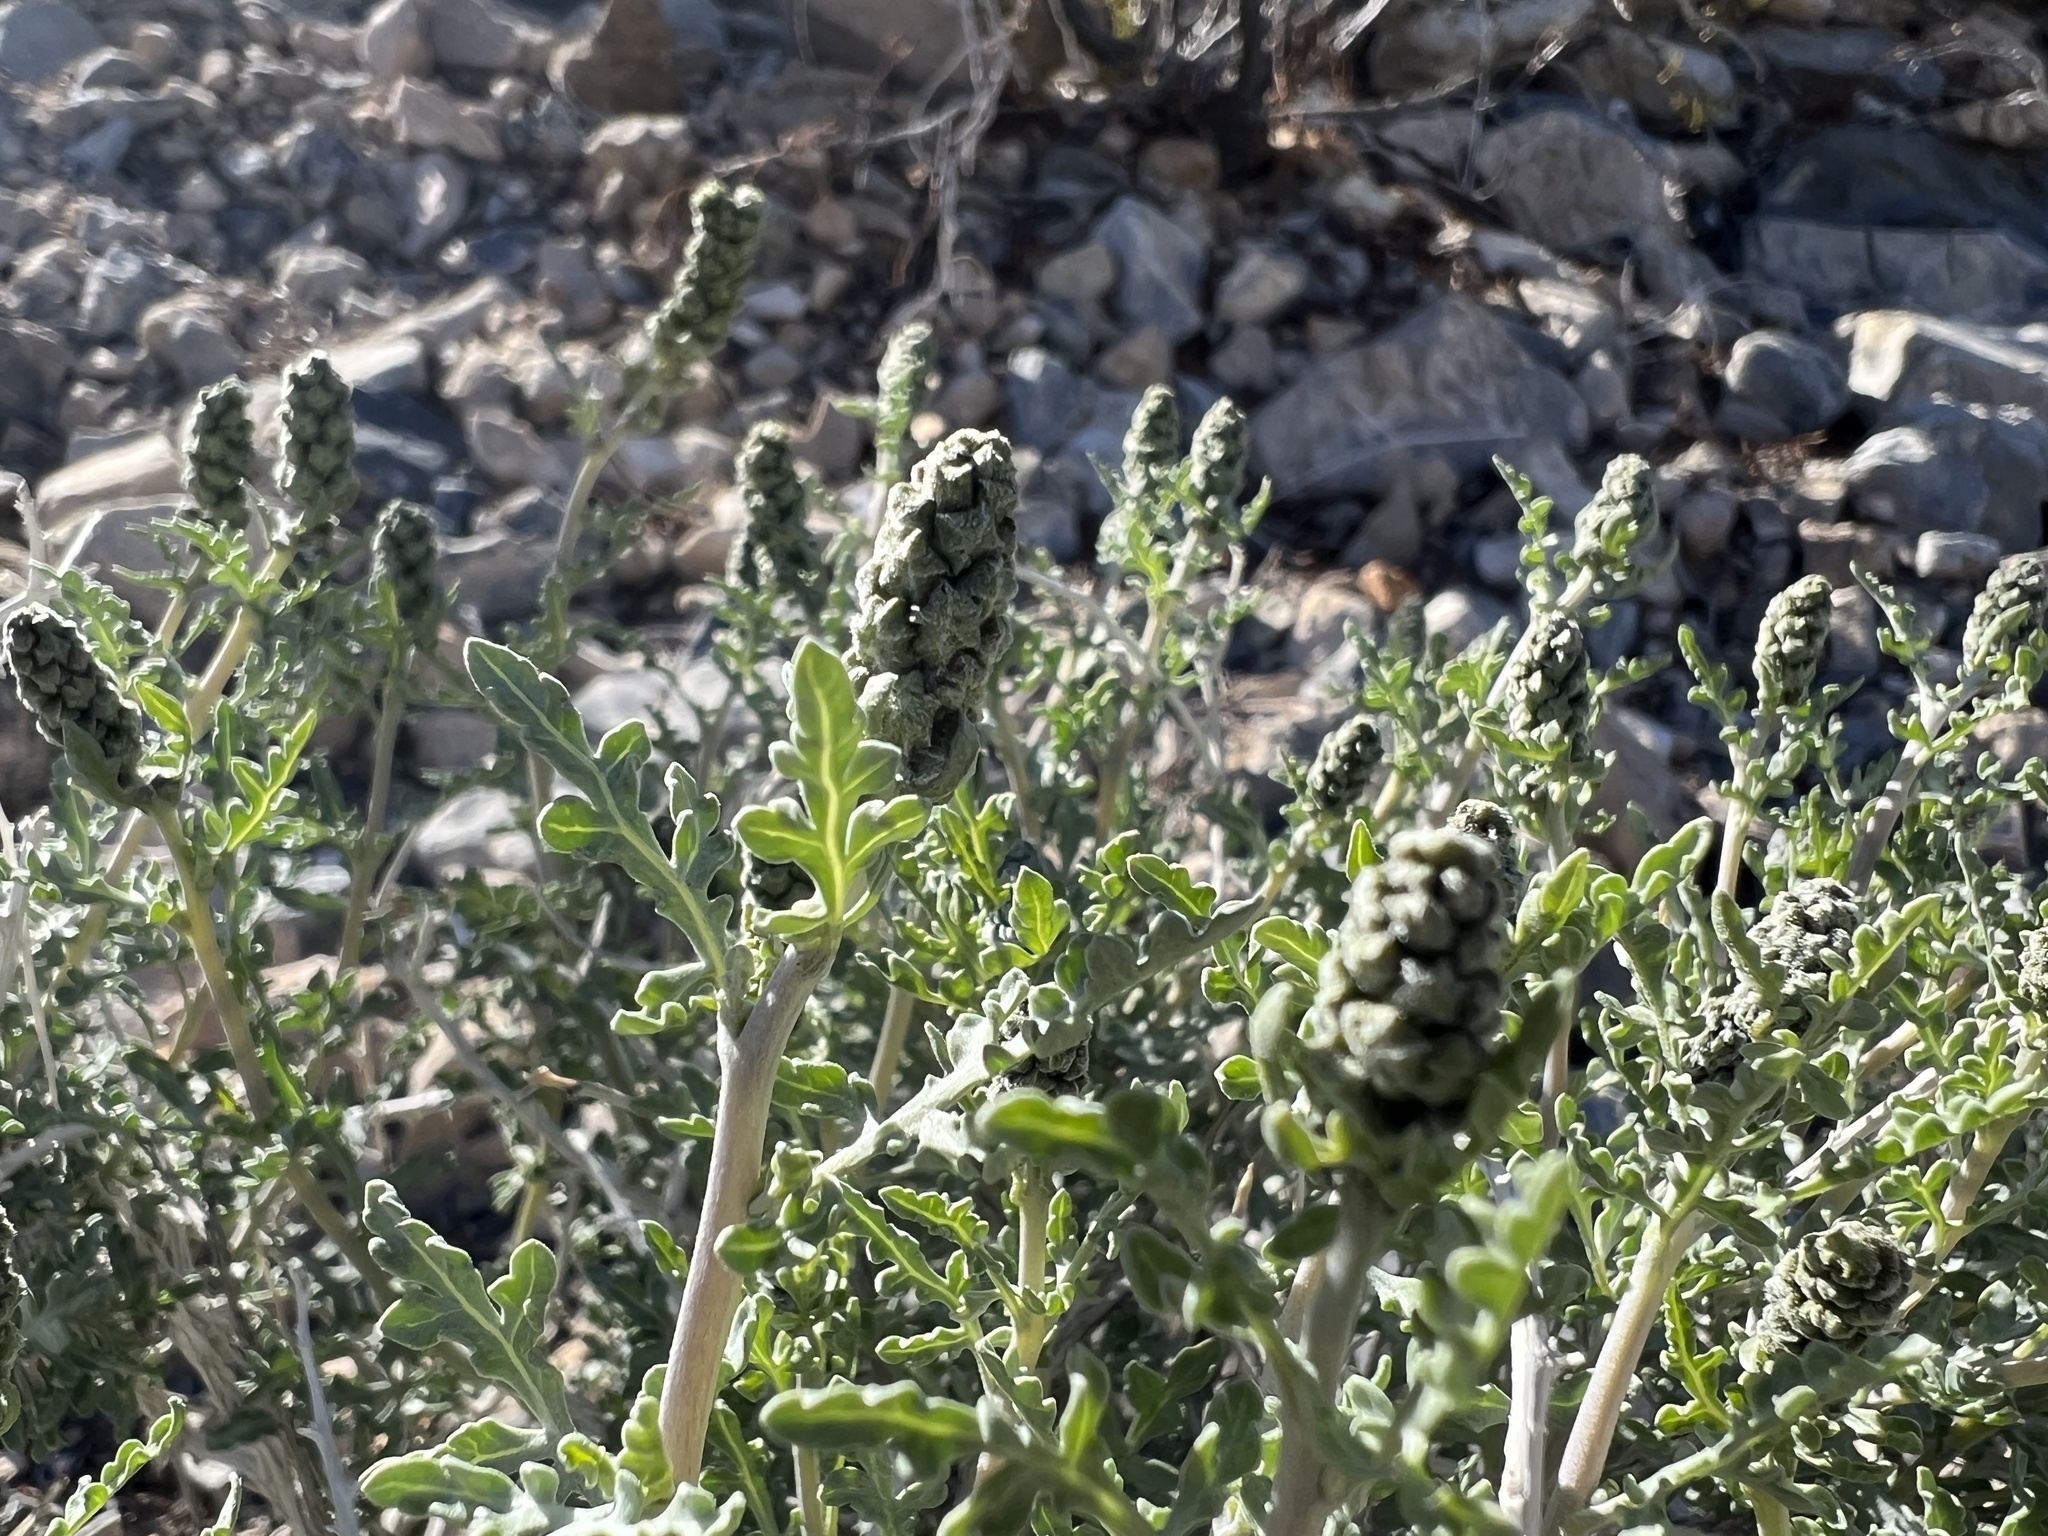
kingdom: Plantae
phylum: Tracheophyta
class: Magnoliopsida
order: Asterales
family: Asteraceae
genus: Ambrosia
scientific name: Ambrosia dumosa
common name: Bur-sage
